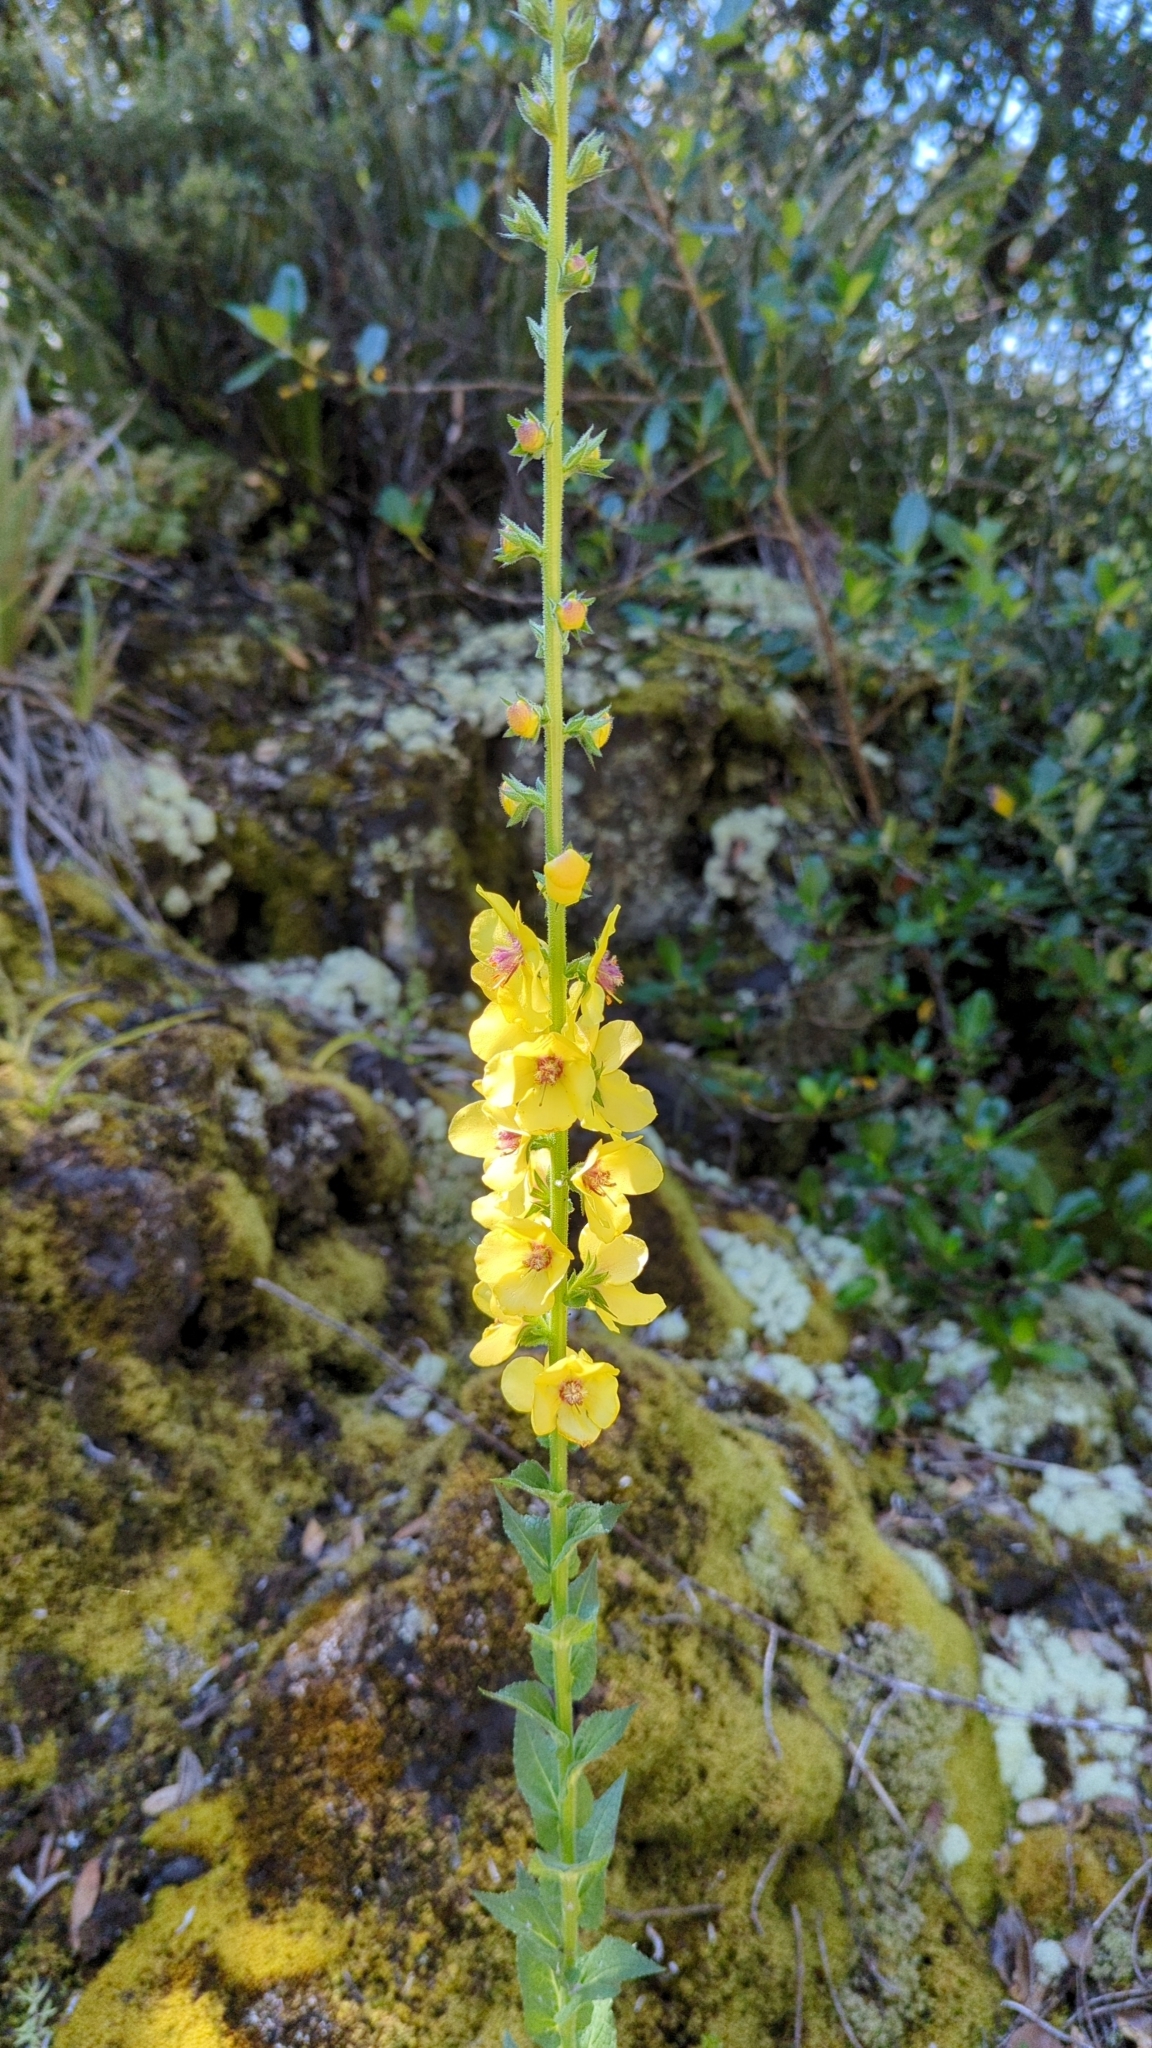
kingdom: Plantae
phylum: Tracheophyta
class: Magnoliopsida
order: Lamiales
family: Scrophulariaceae
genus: Verbascum
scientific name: Verbascum virgatum
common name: Twiggy mullein
